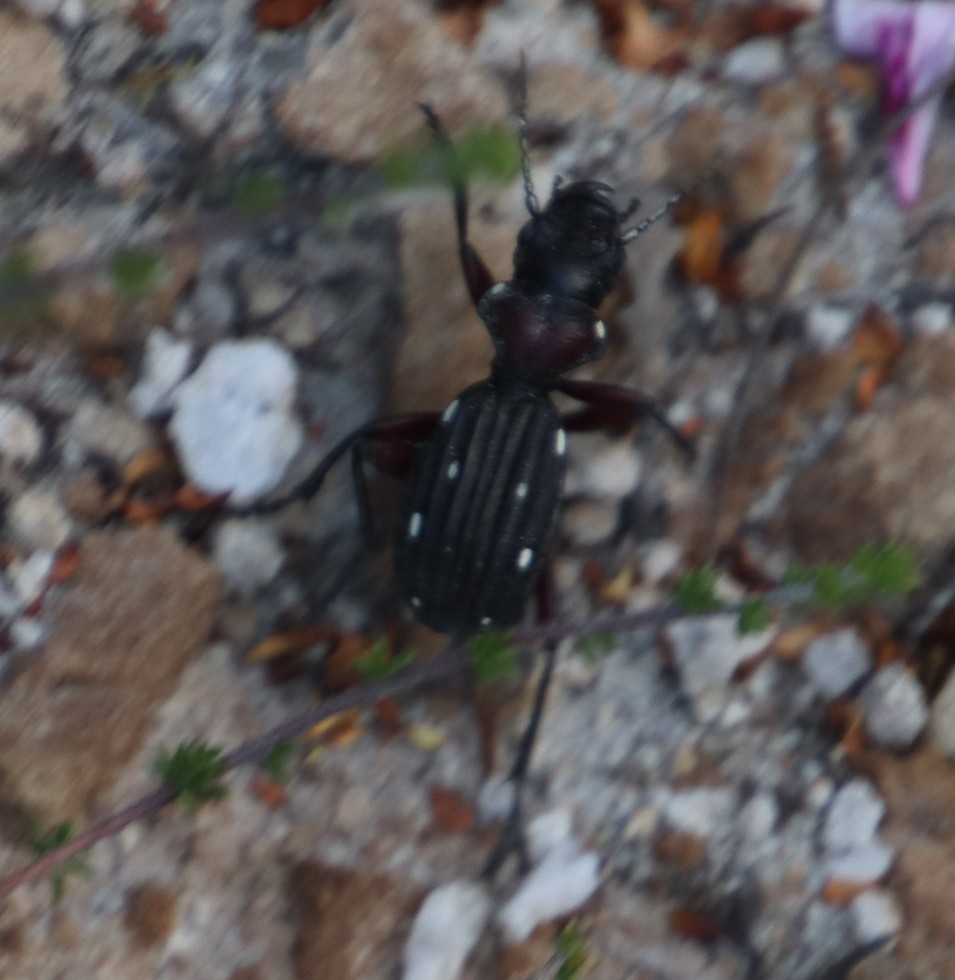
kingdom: Animalia
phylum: Arthropoda
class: Insecta
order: Coleoptera
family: Carabidae
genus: Anthia
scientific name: Anthia decemguttata
